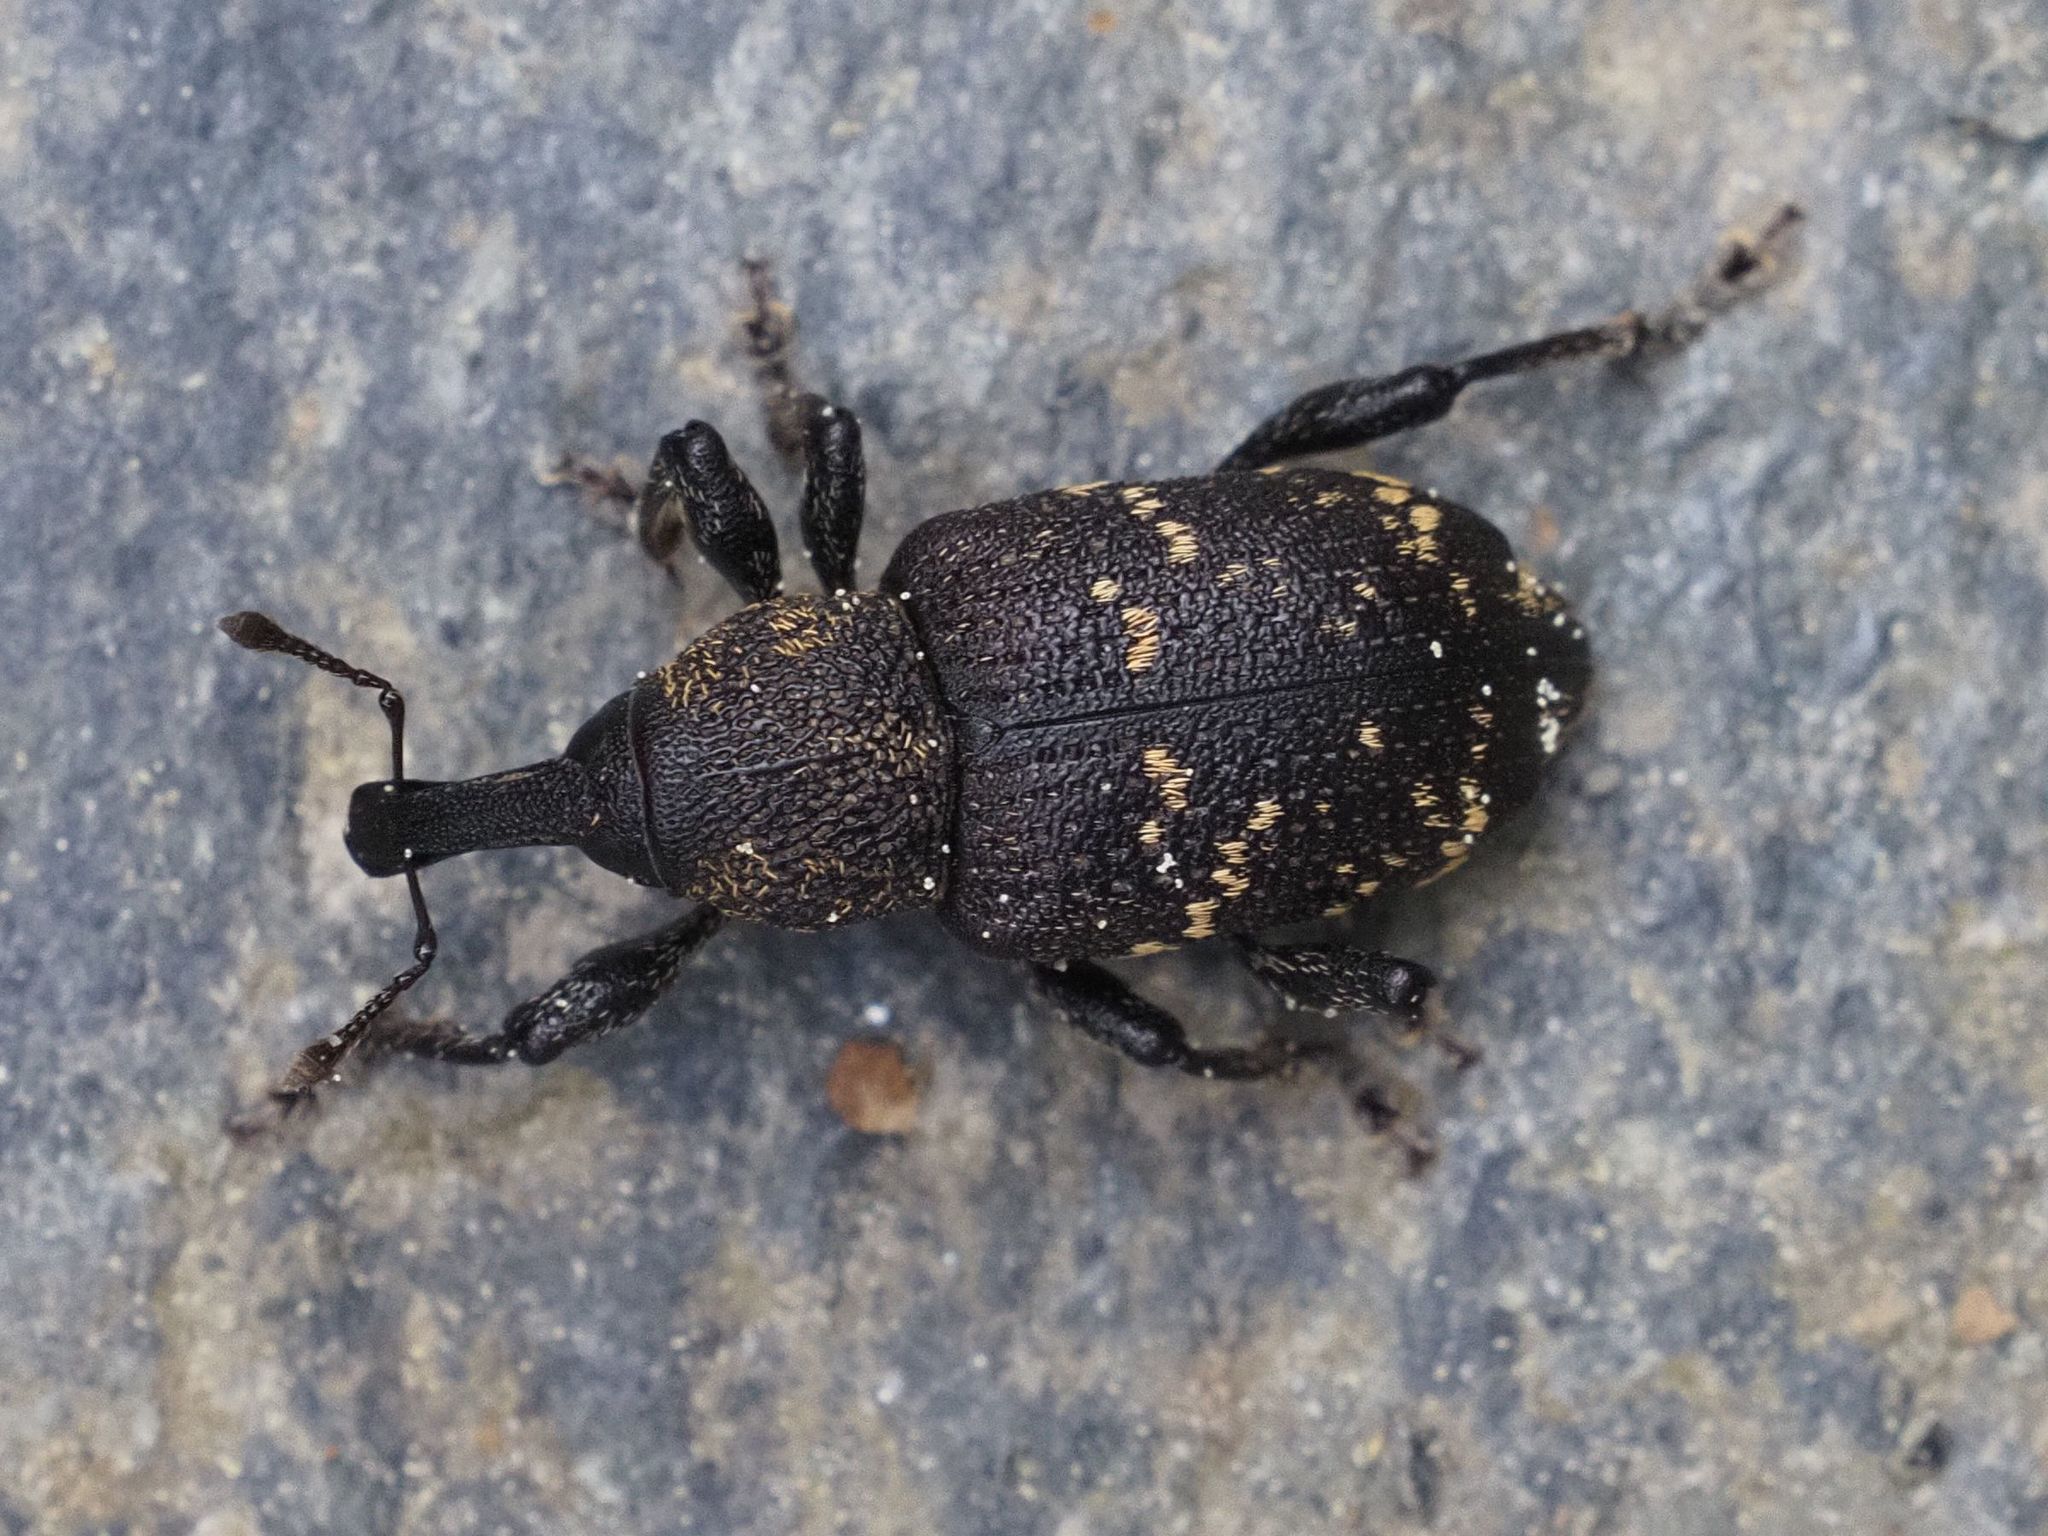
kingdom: Animalia
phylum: Arthropoda
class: Insecta
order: Coleoptera
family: Curculionidae
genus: Hylobius
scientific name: Hylobius abietis
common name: Large pine weevil
